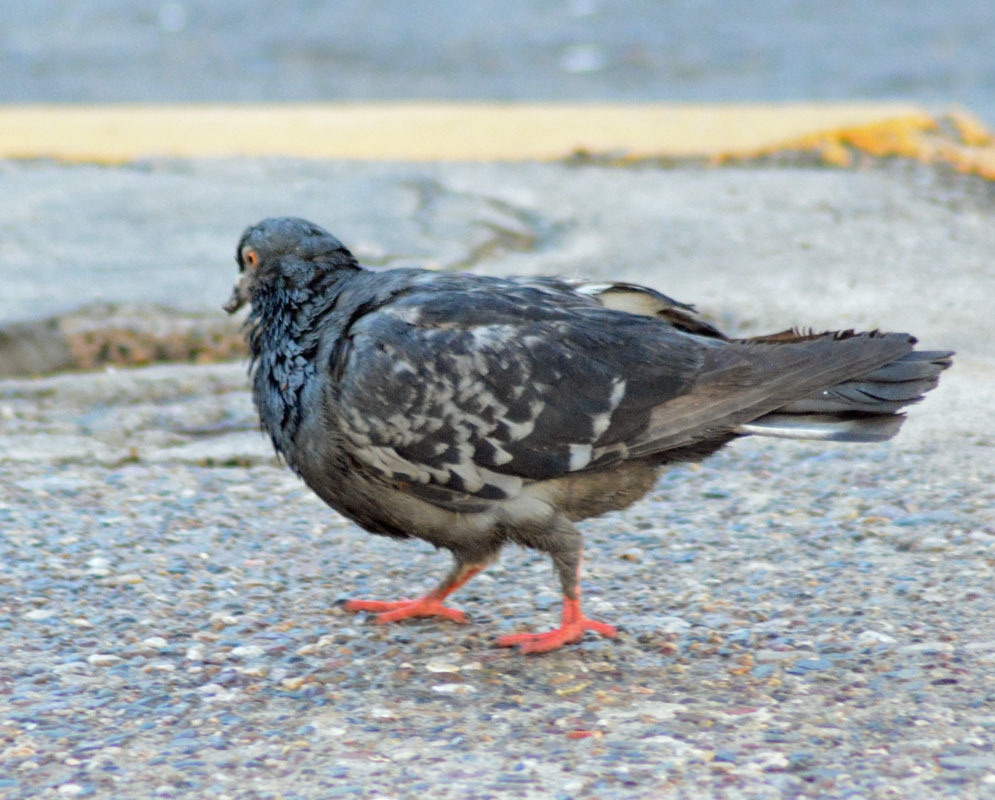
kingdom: Animalia
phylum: Chordata
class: Aves
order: Columbiformes
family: Columbidae
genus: Columba
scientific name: Columba livia
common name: Rock pigeon
